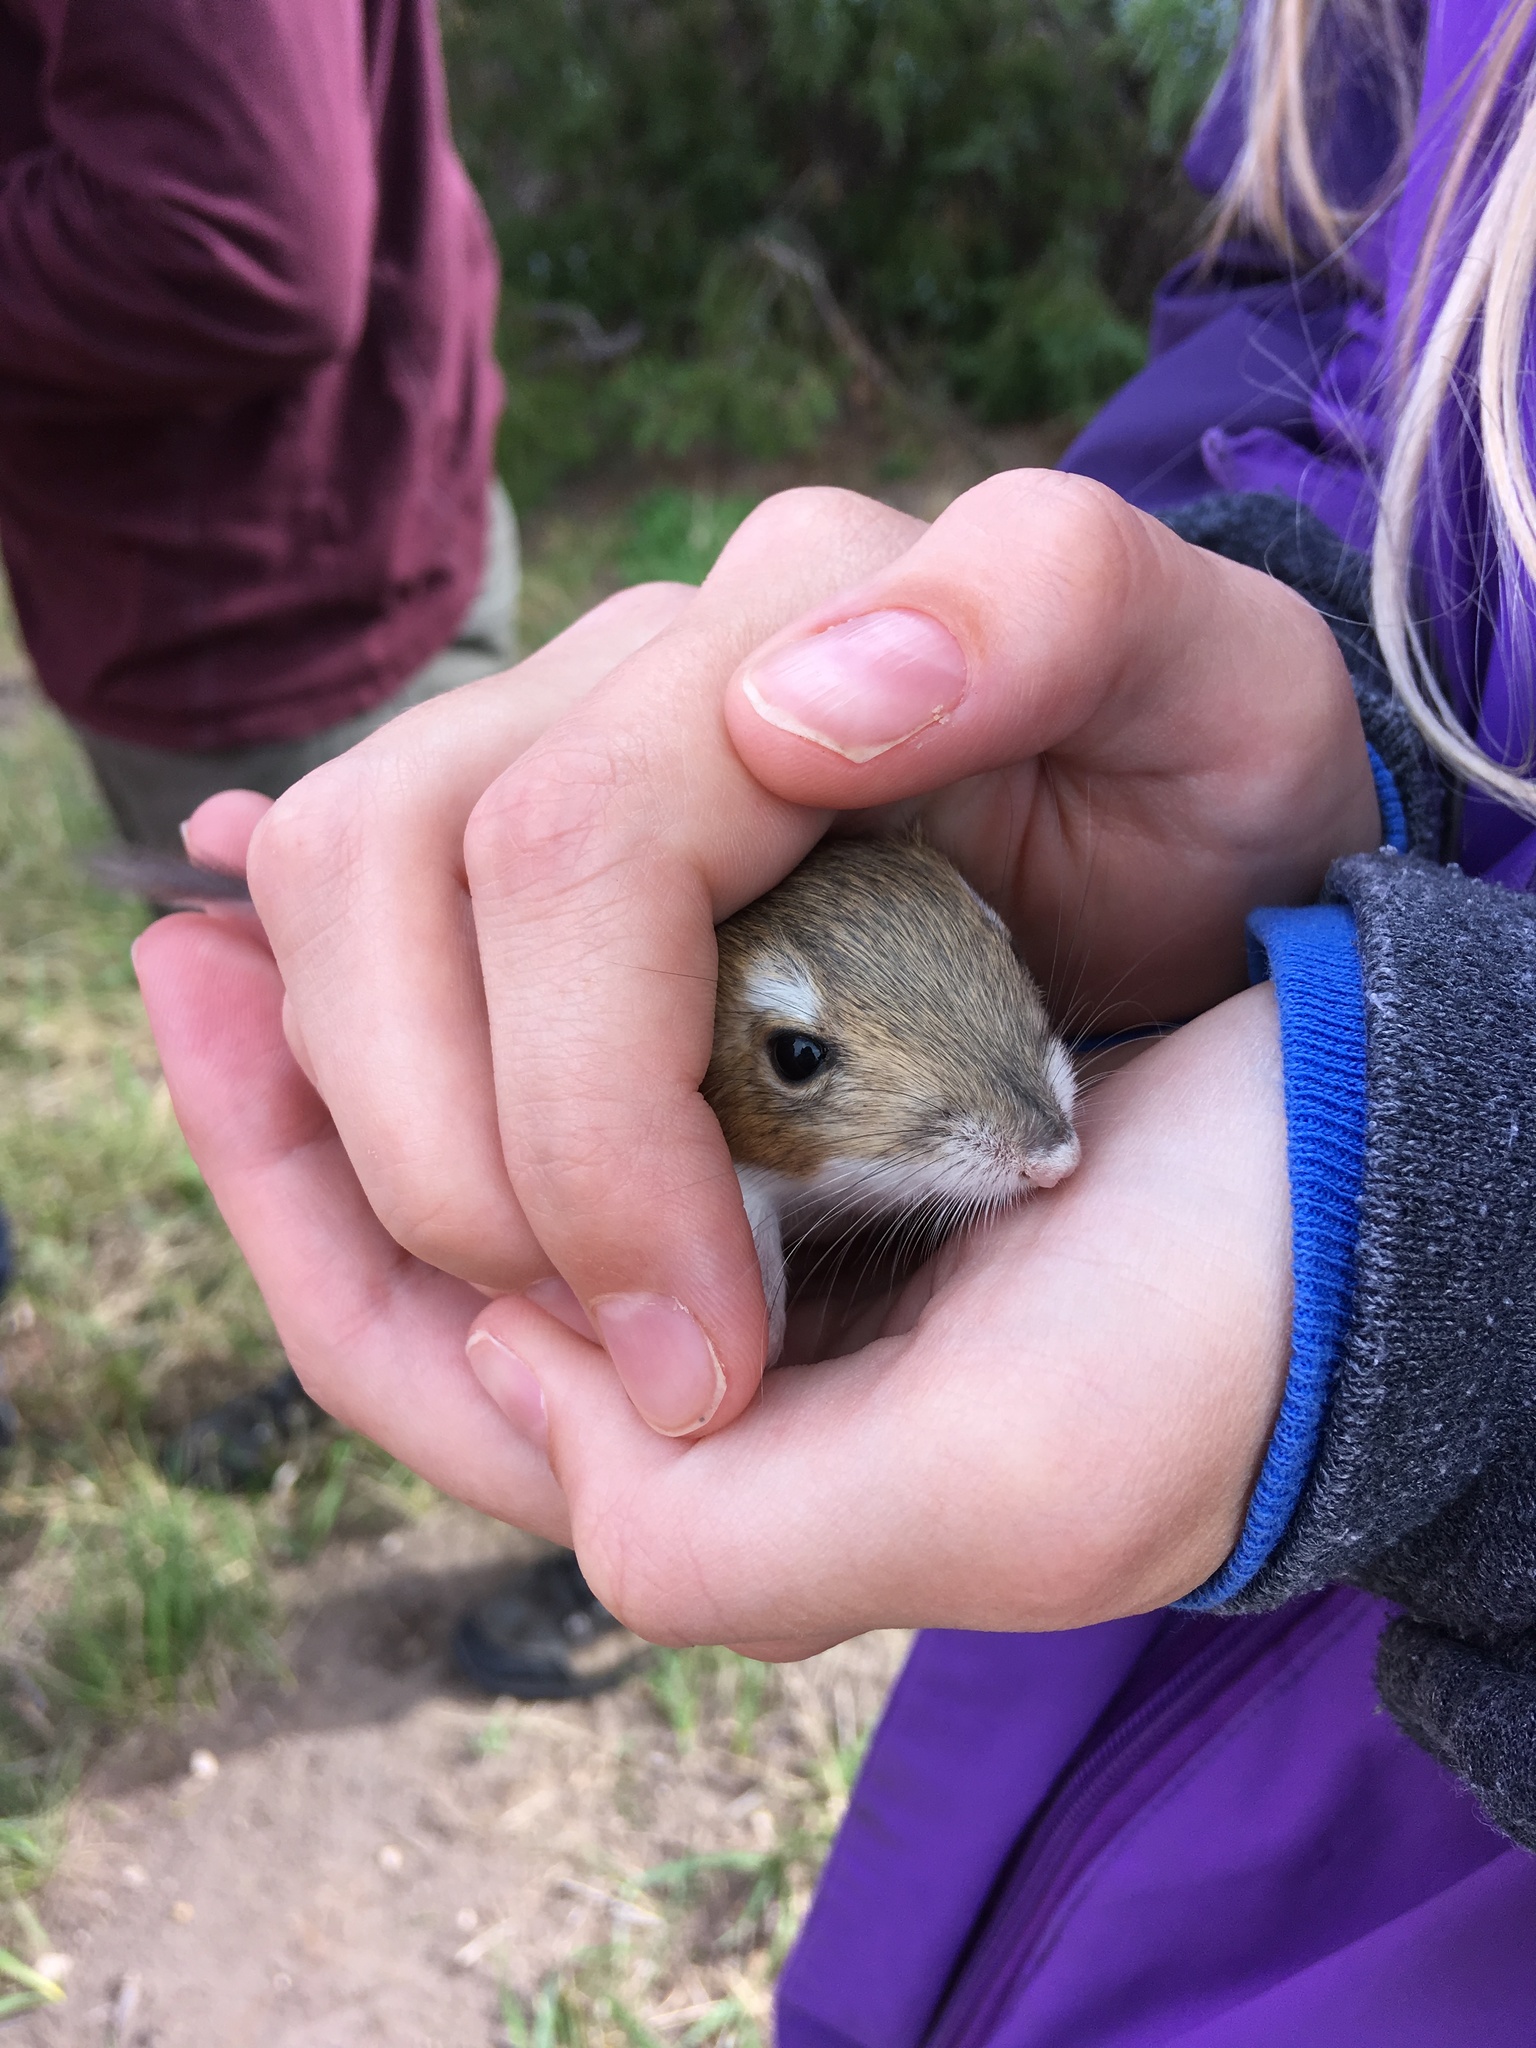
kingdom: Animalia
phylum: Chordata
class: Mammalia
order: Rodentia
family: Heteromyidae
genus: Dipodomys
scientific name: Dipodomys ordii
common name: Ord's kangaroo rat
